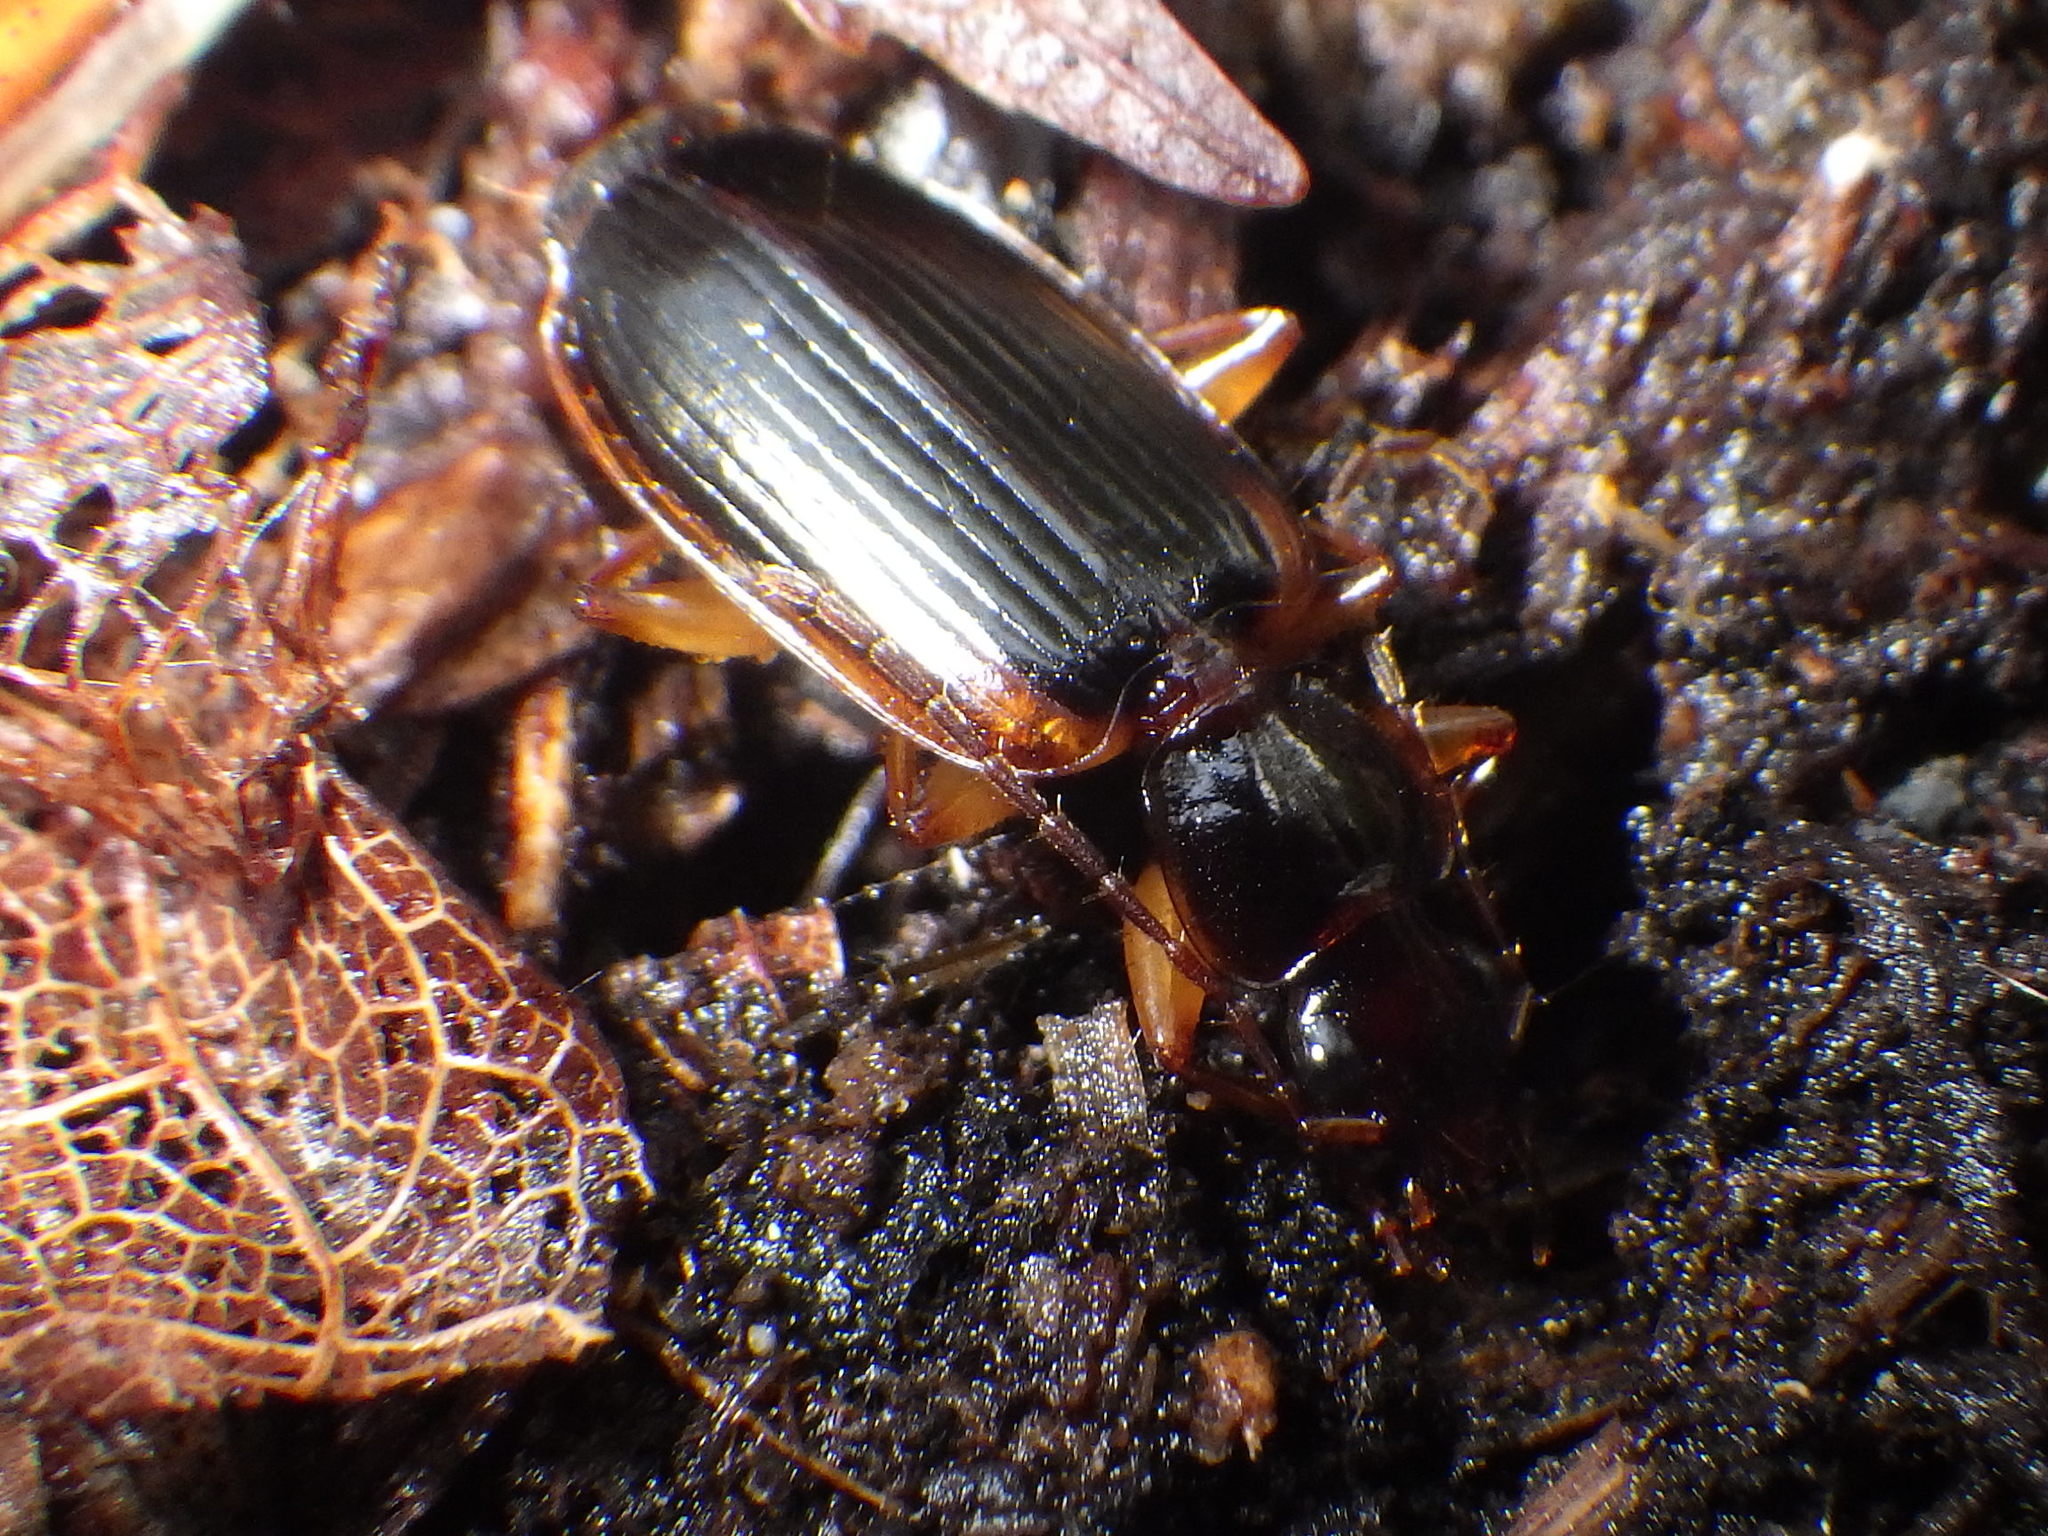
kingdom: Animalia
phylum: Arthropoda
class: Insecta
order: Coleoptera
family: Carabidae
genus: Pinacodera
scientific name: Pinacodera limbata
